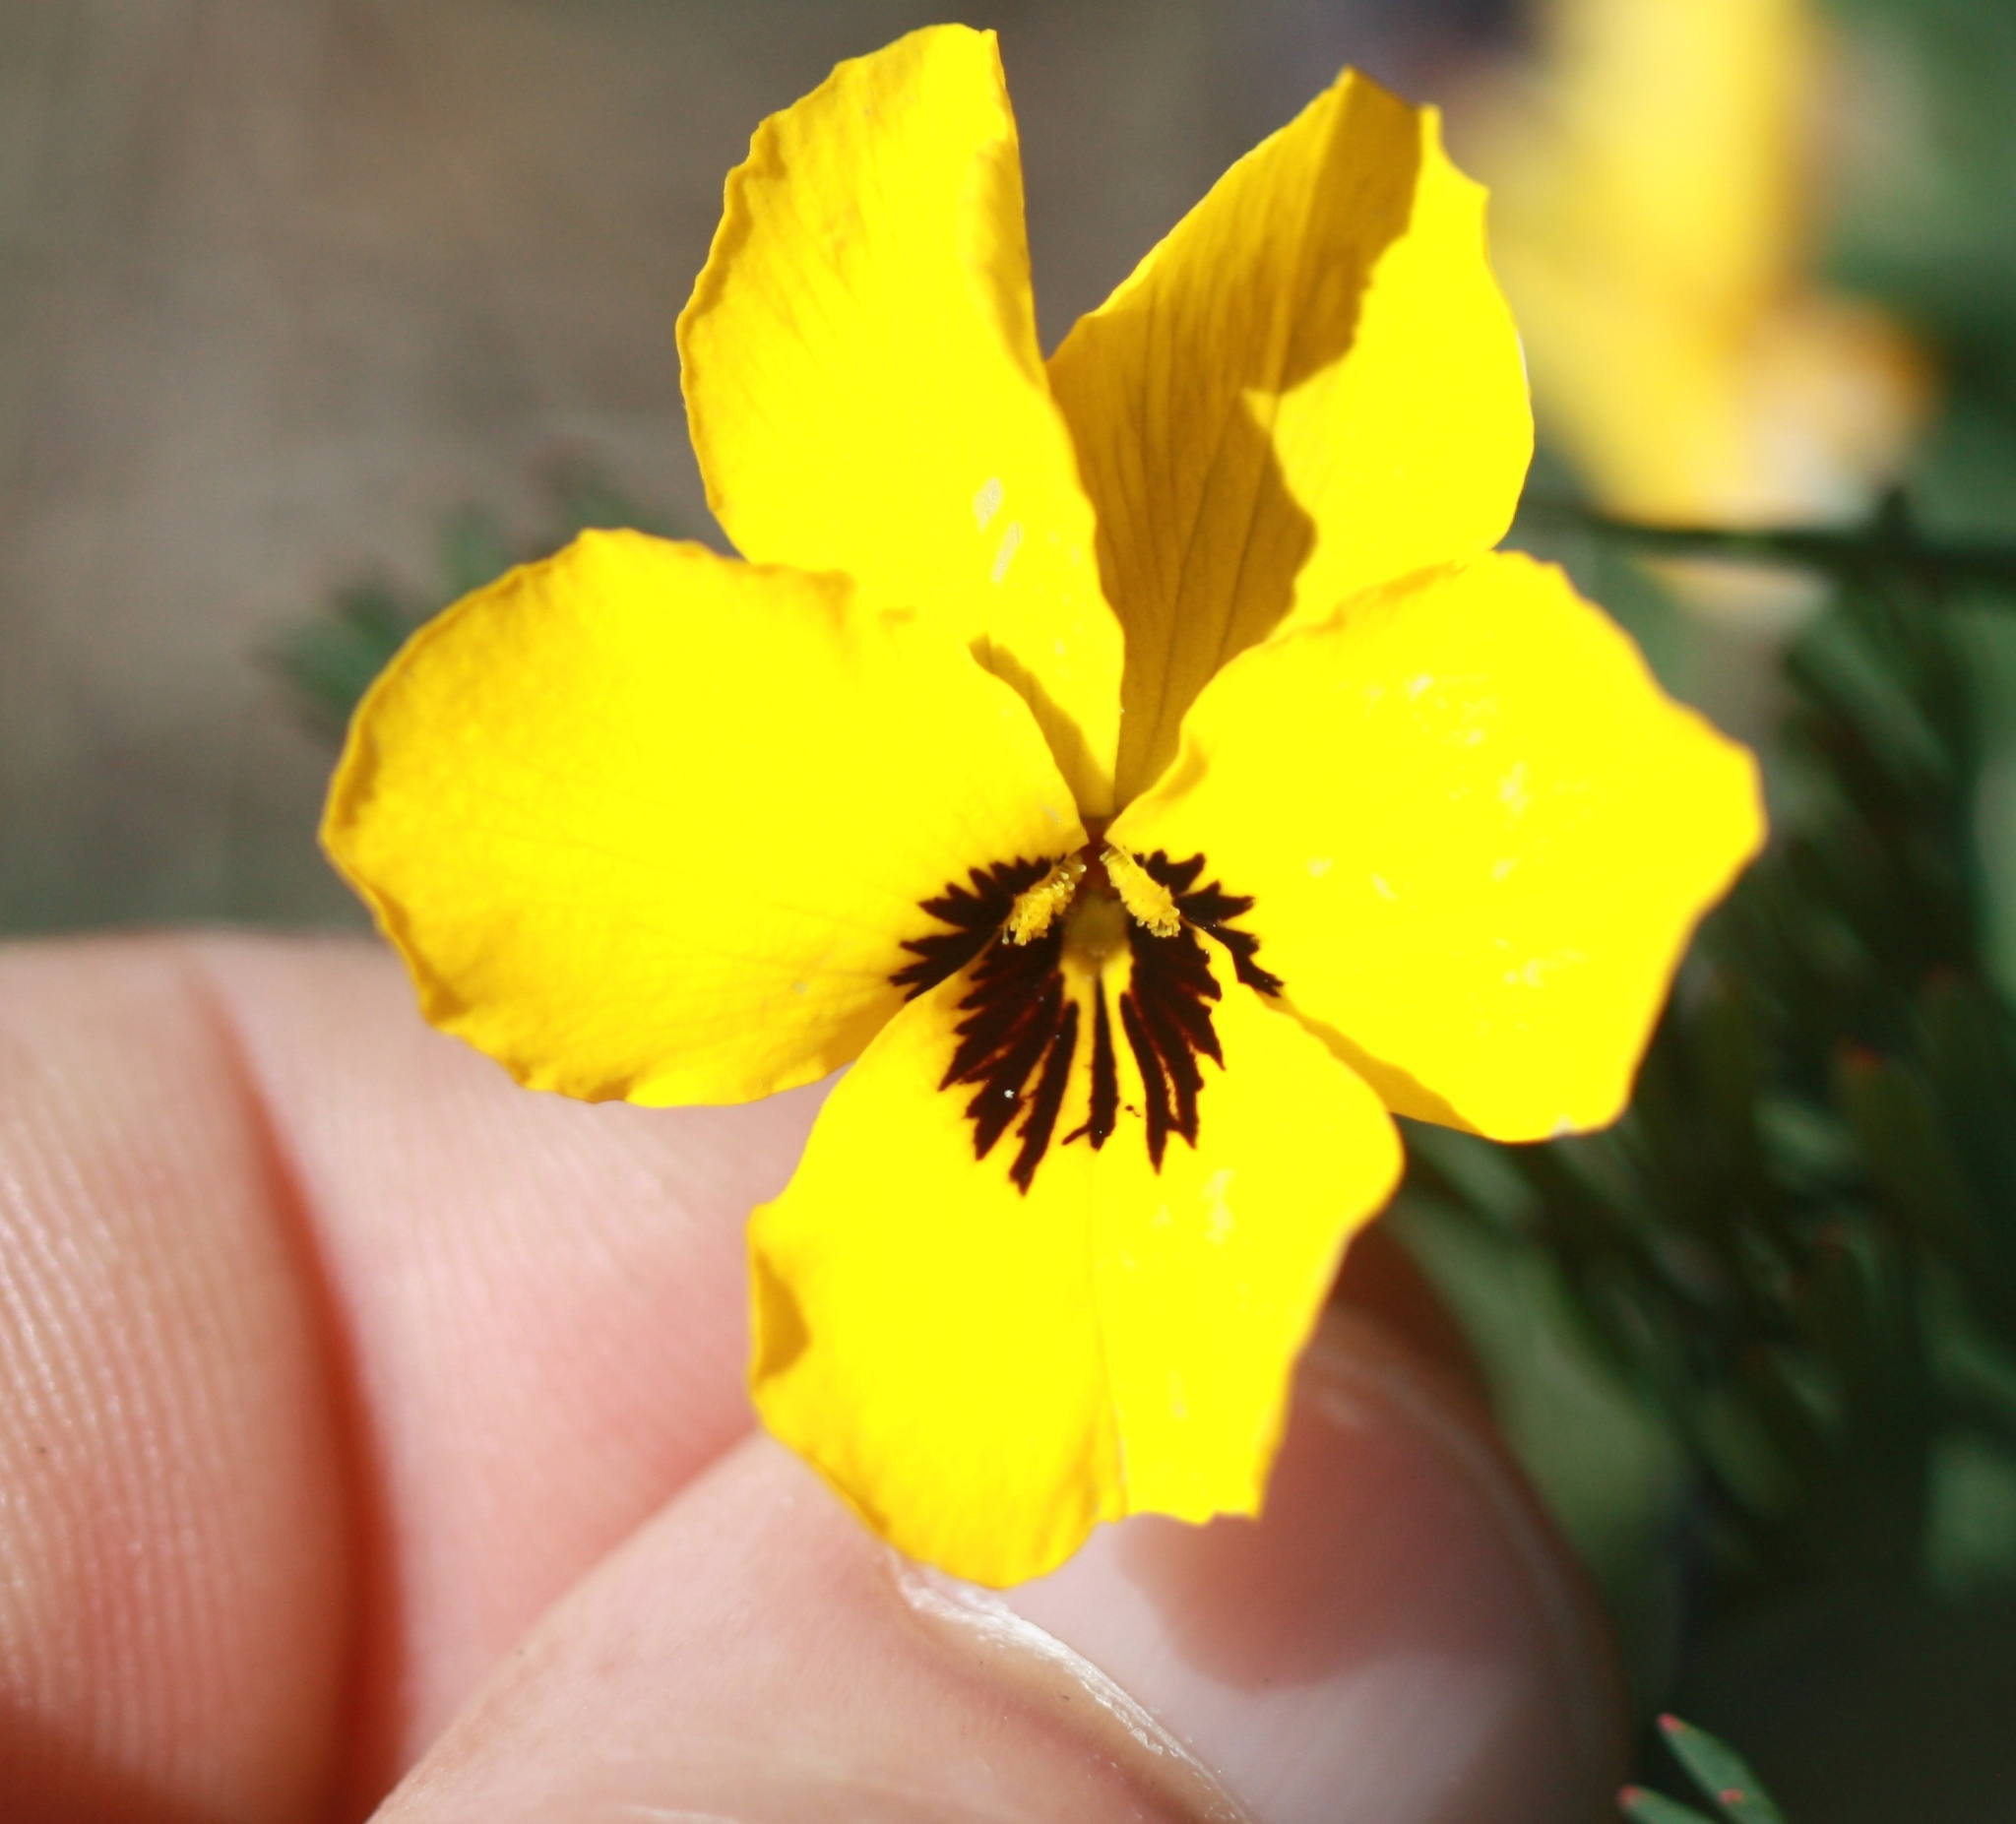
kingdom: Plantae
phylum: Tracheophyta
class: Magnoliopsida
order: Malpighiales
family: Violaceae
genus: Viola
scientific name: Viola pedunculata
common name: California golden violet
